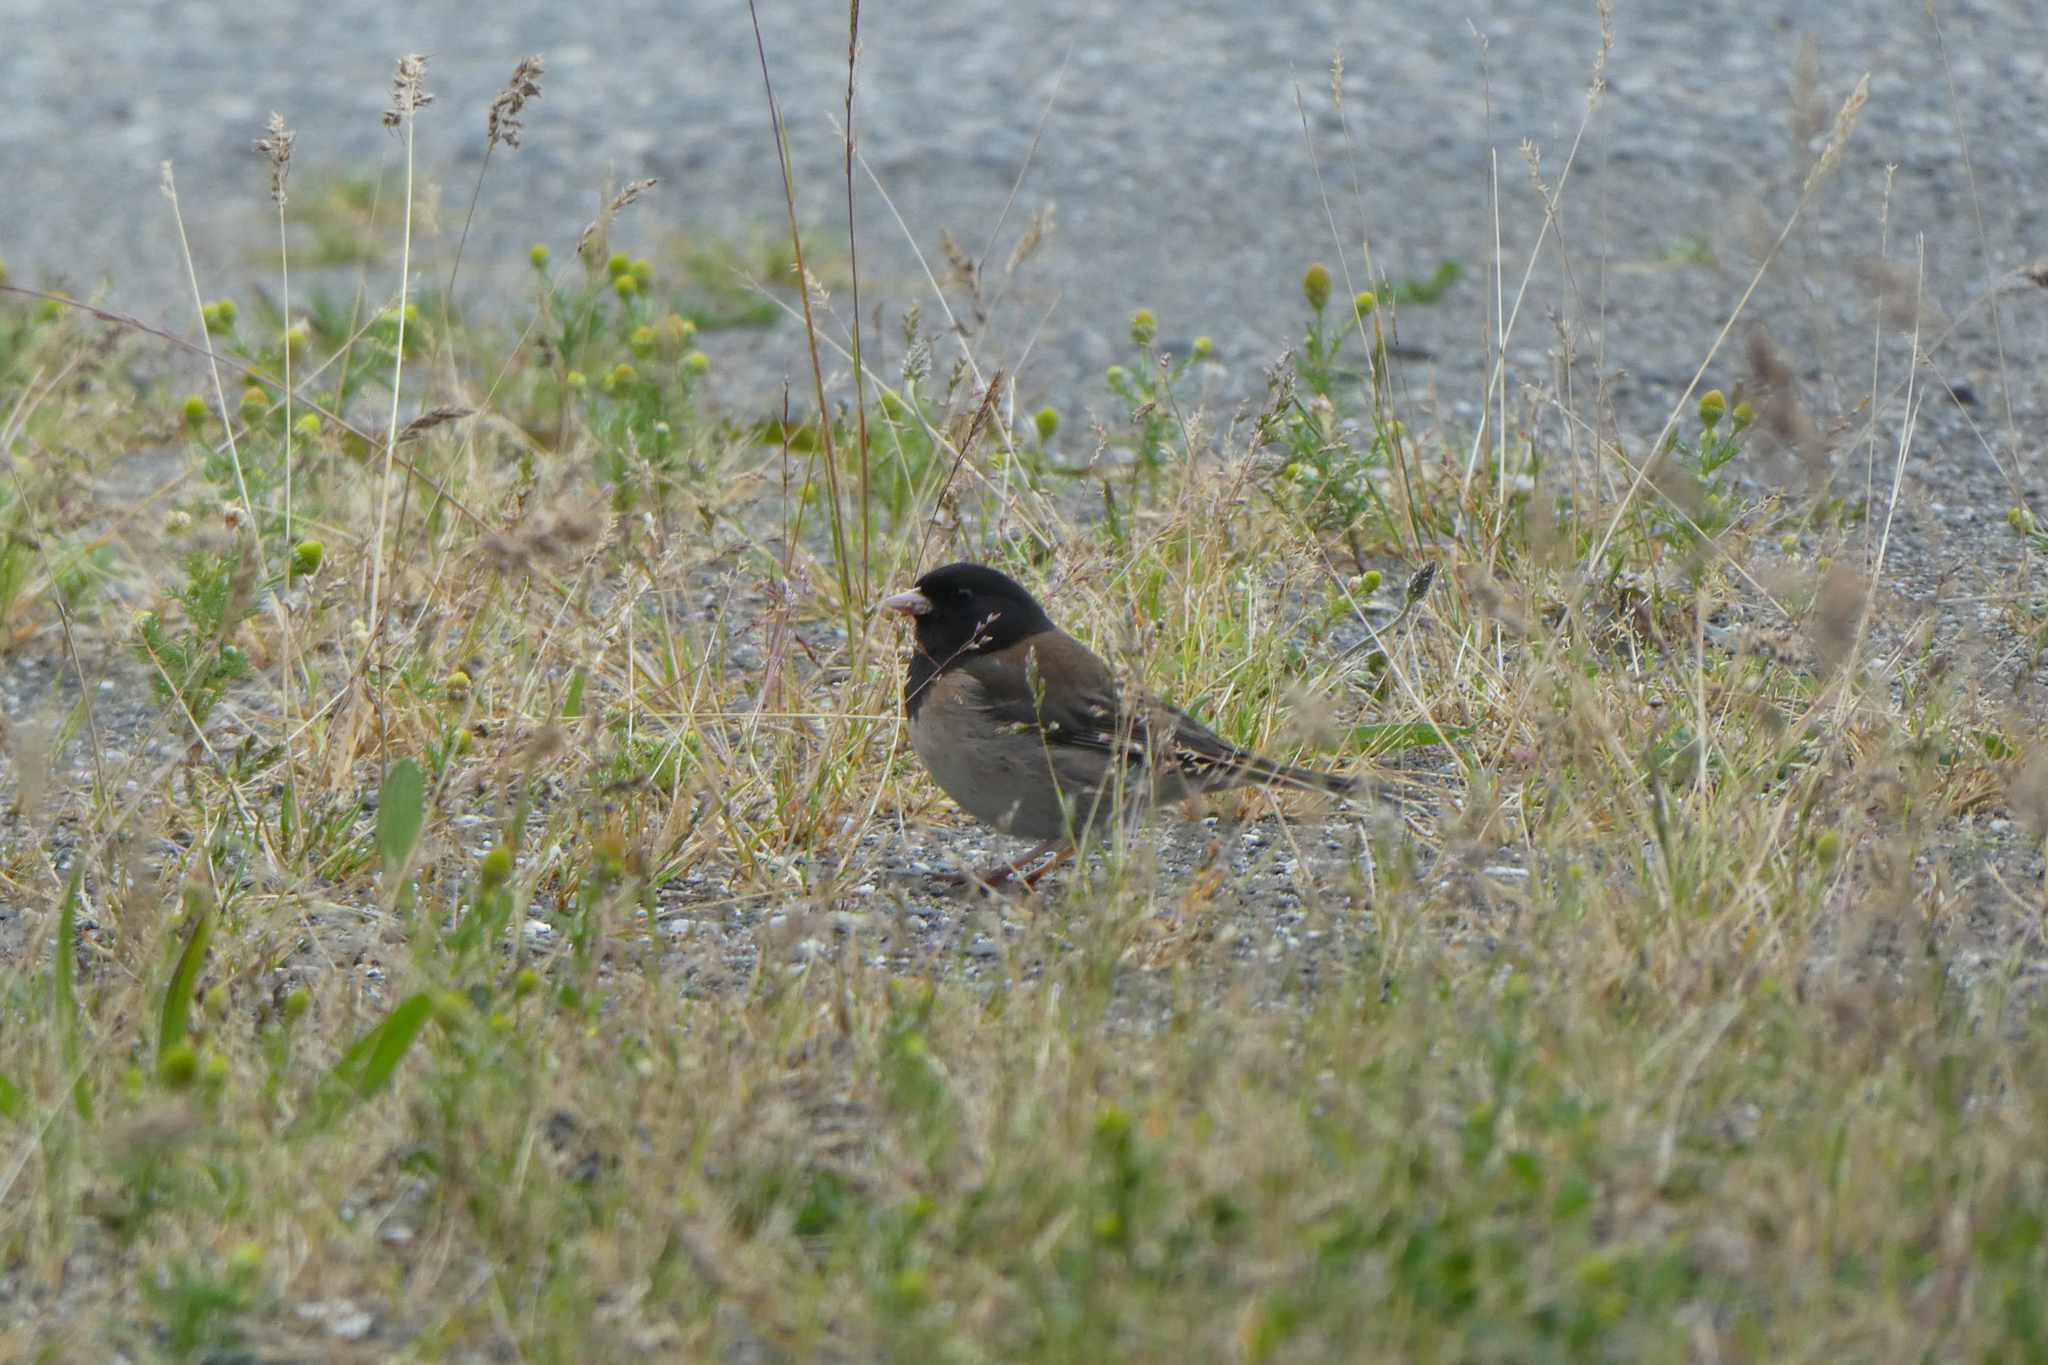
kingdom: Animalia
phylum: Chordata
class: Aves
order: Passeriformes
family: Passerellidae
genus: Junco
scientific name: Junco hyemalis
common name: Dark-eyed junco
